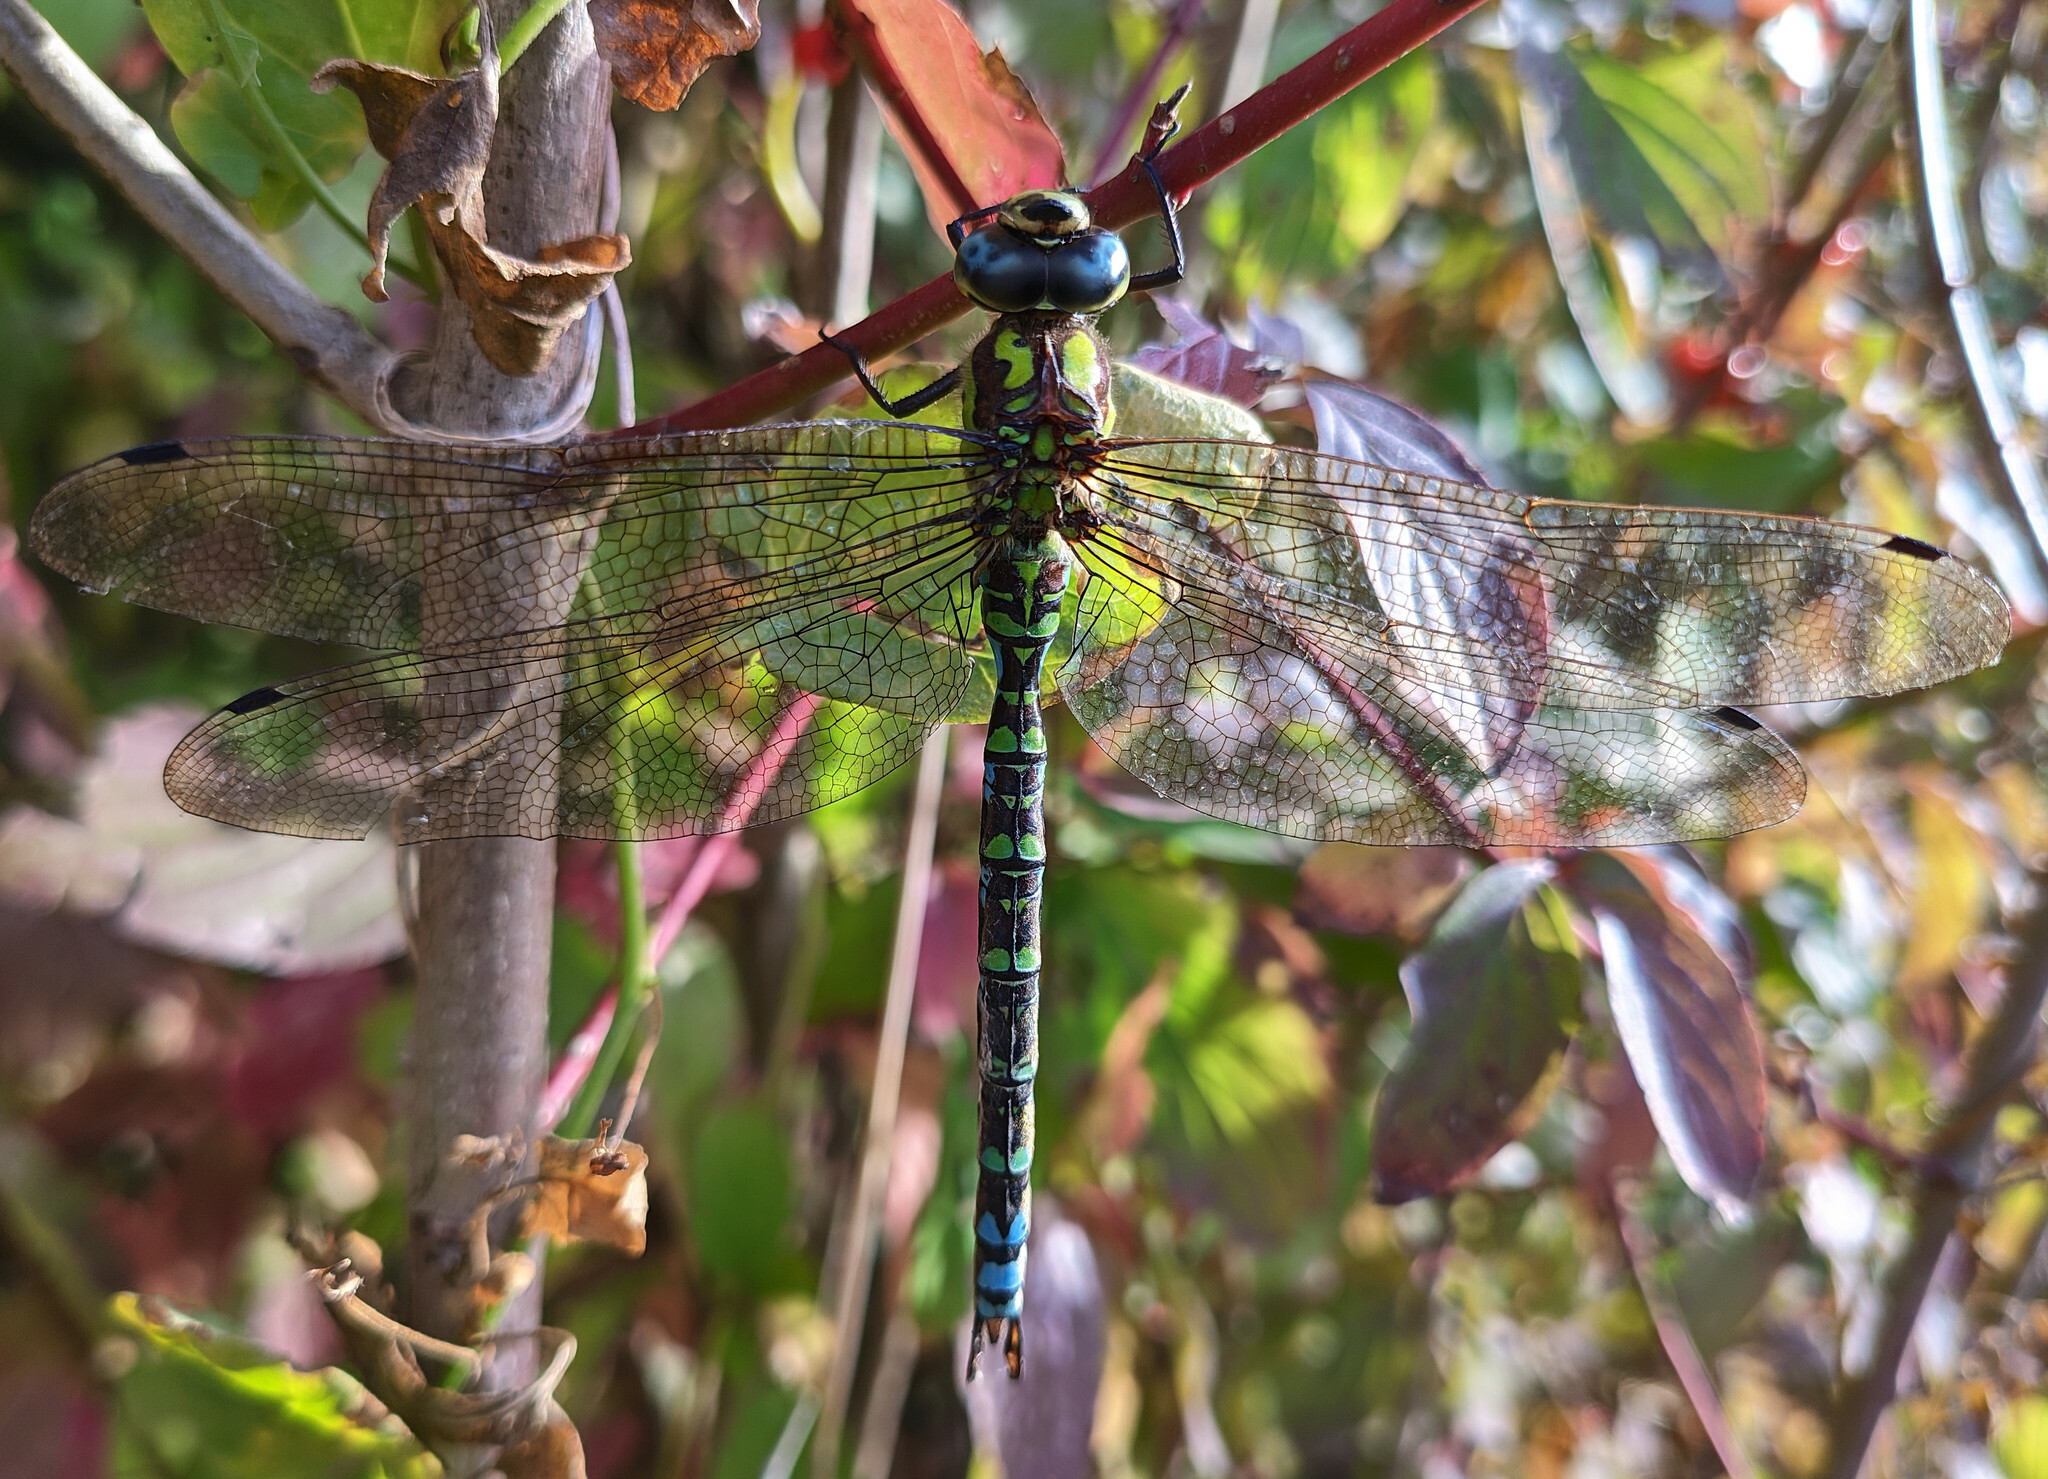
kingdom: Animalia
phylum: Arthropoda
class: Insecta
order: Odonata
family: Aeshnidae
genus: Aeshna
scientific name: Aeshna cyanea
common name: Southern hawker
